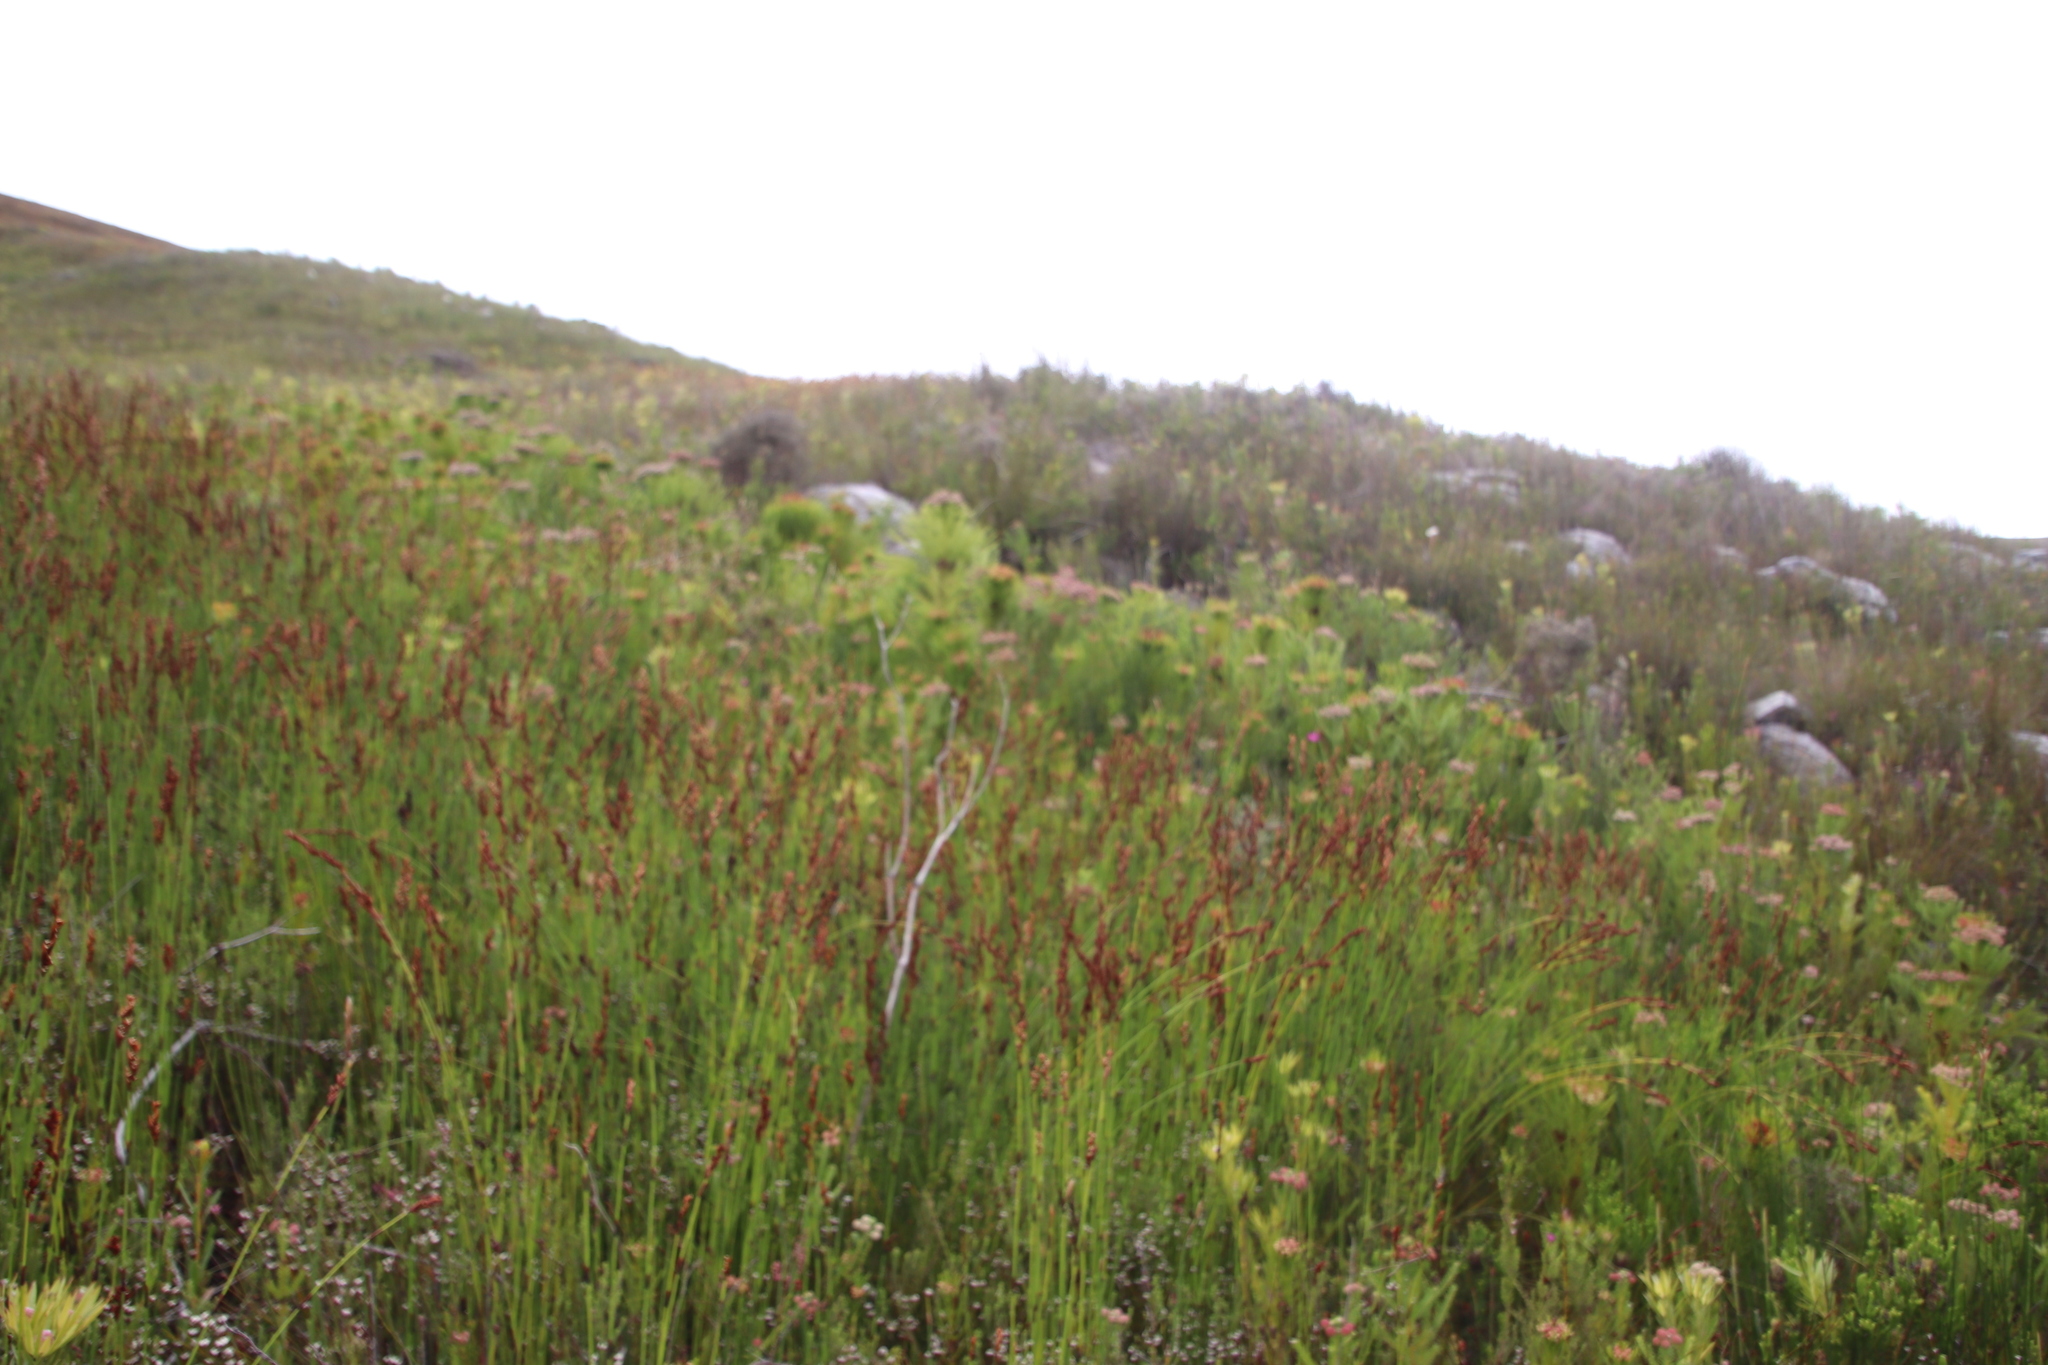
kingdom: Plantae
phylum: Tracheophyta
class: Magnoliopsida
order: Ericales
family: Ericaceae
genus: Erica
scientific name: Erica macowanii
